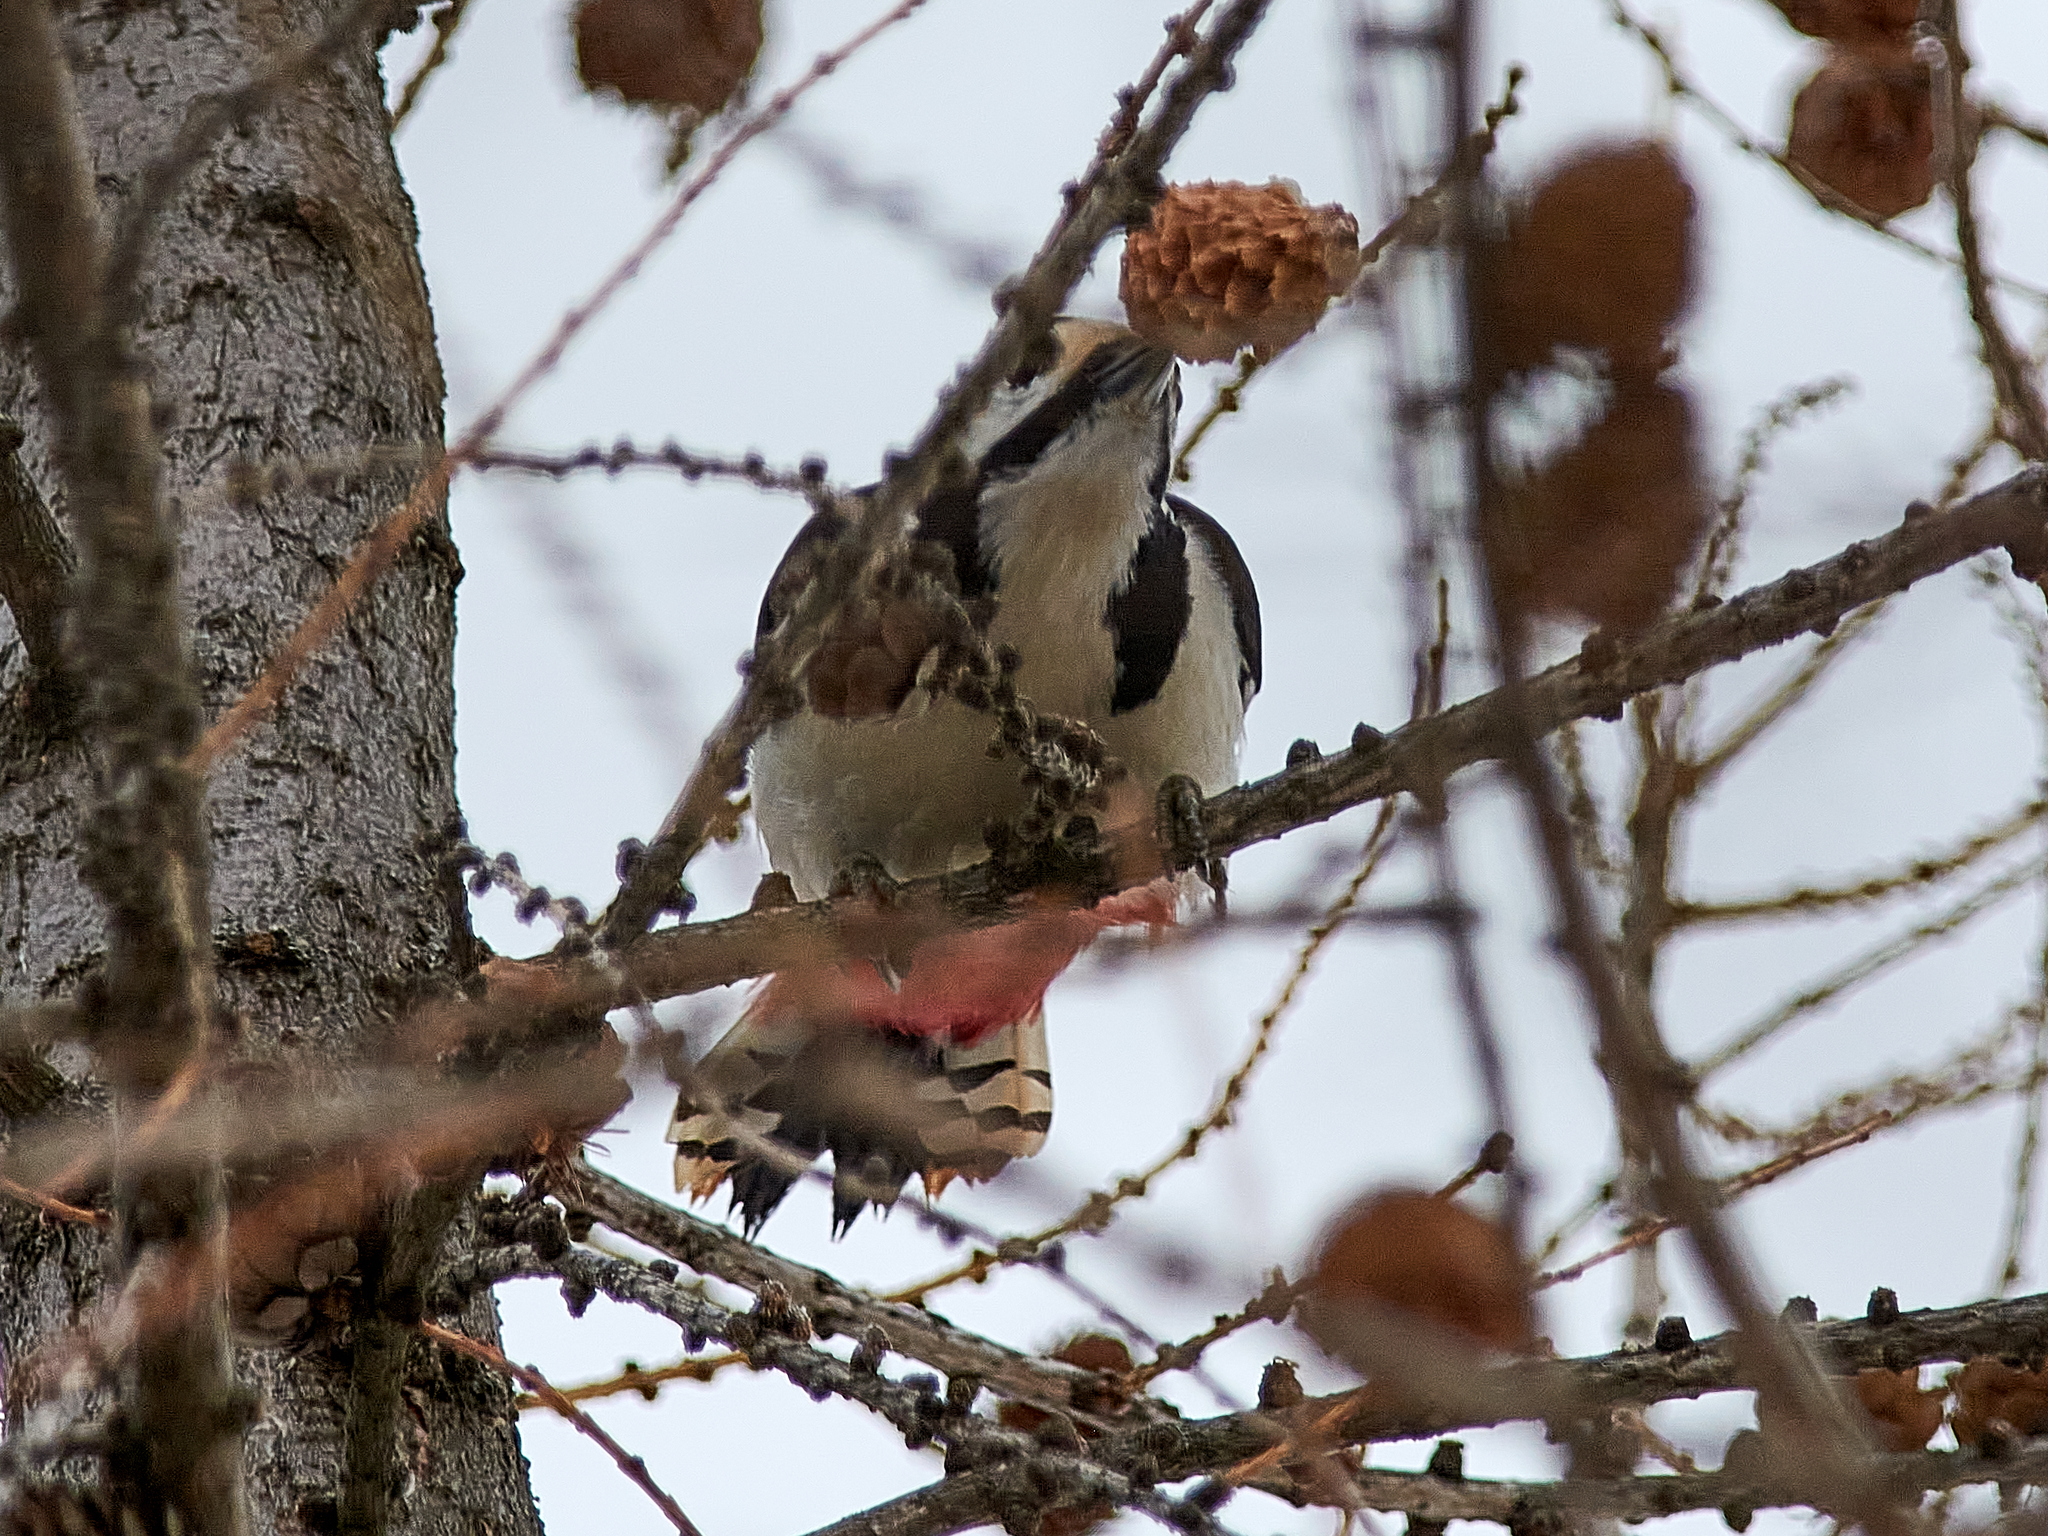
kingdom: Animalia
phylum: Chordata
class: Aves
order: Piciformes
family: Picidae
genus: Dendrocopos
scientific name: Dendrocopos major
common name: Great spotted woodpecker
